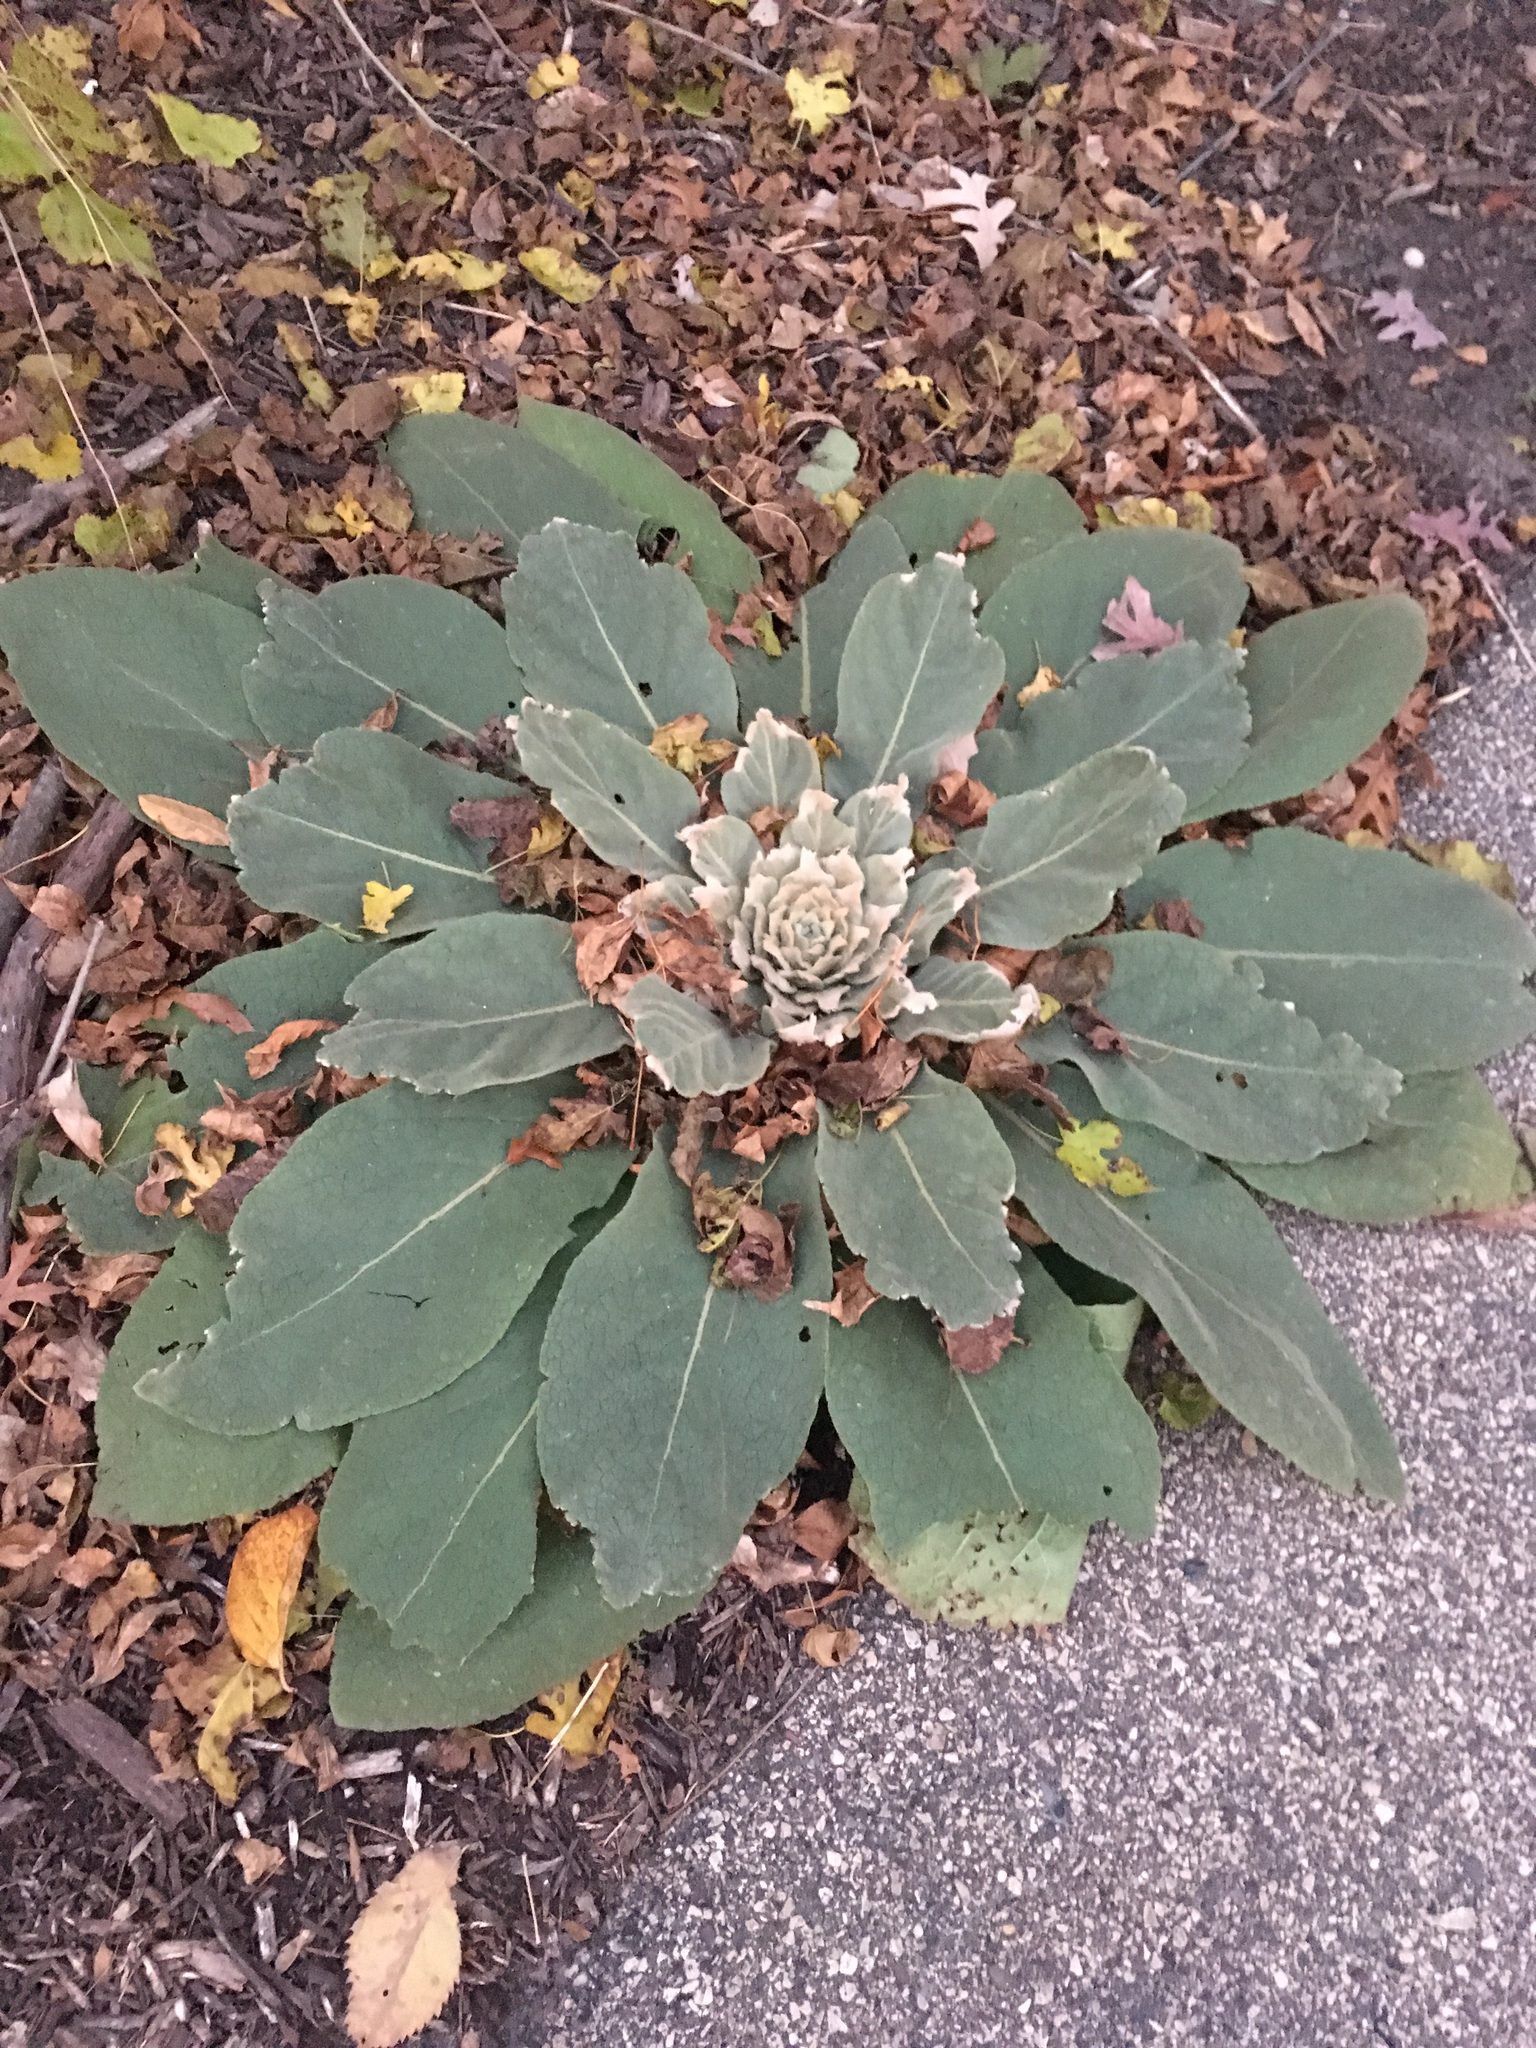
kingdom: Plantae
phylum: Tracheophyta
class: Magnoliopsida
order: Lamiales
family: Scrophulariaceae
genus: Verbascum
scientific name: Verbascum thapsus
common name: Common mullein
